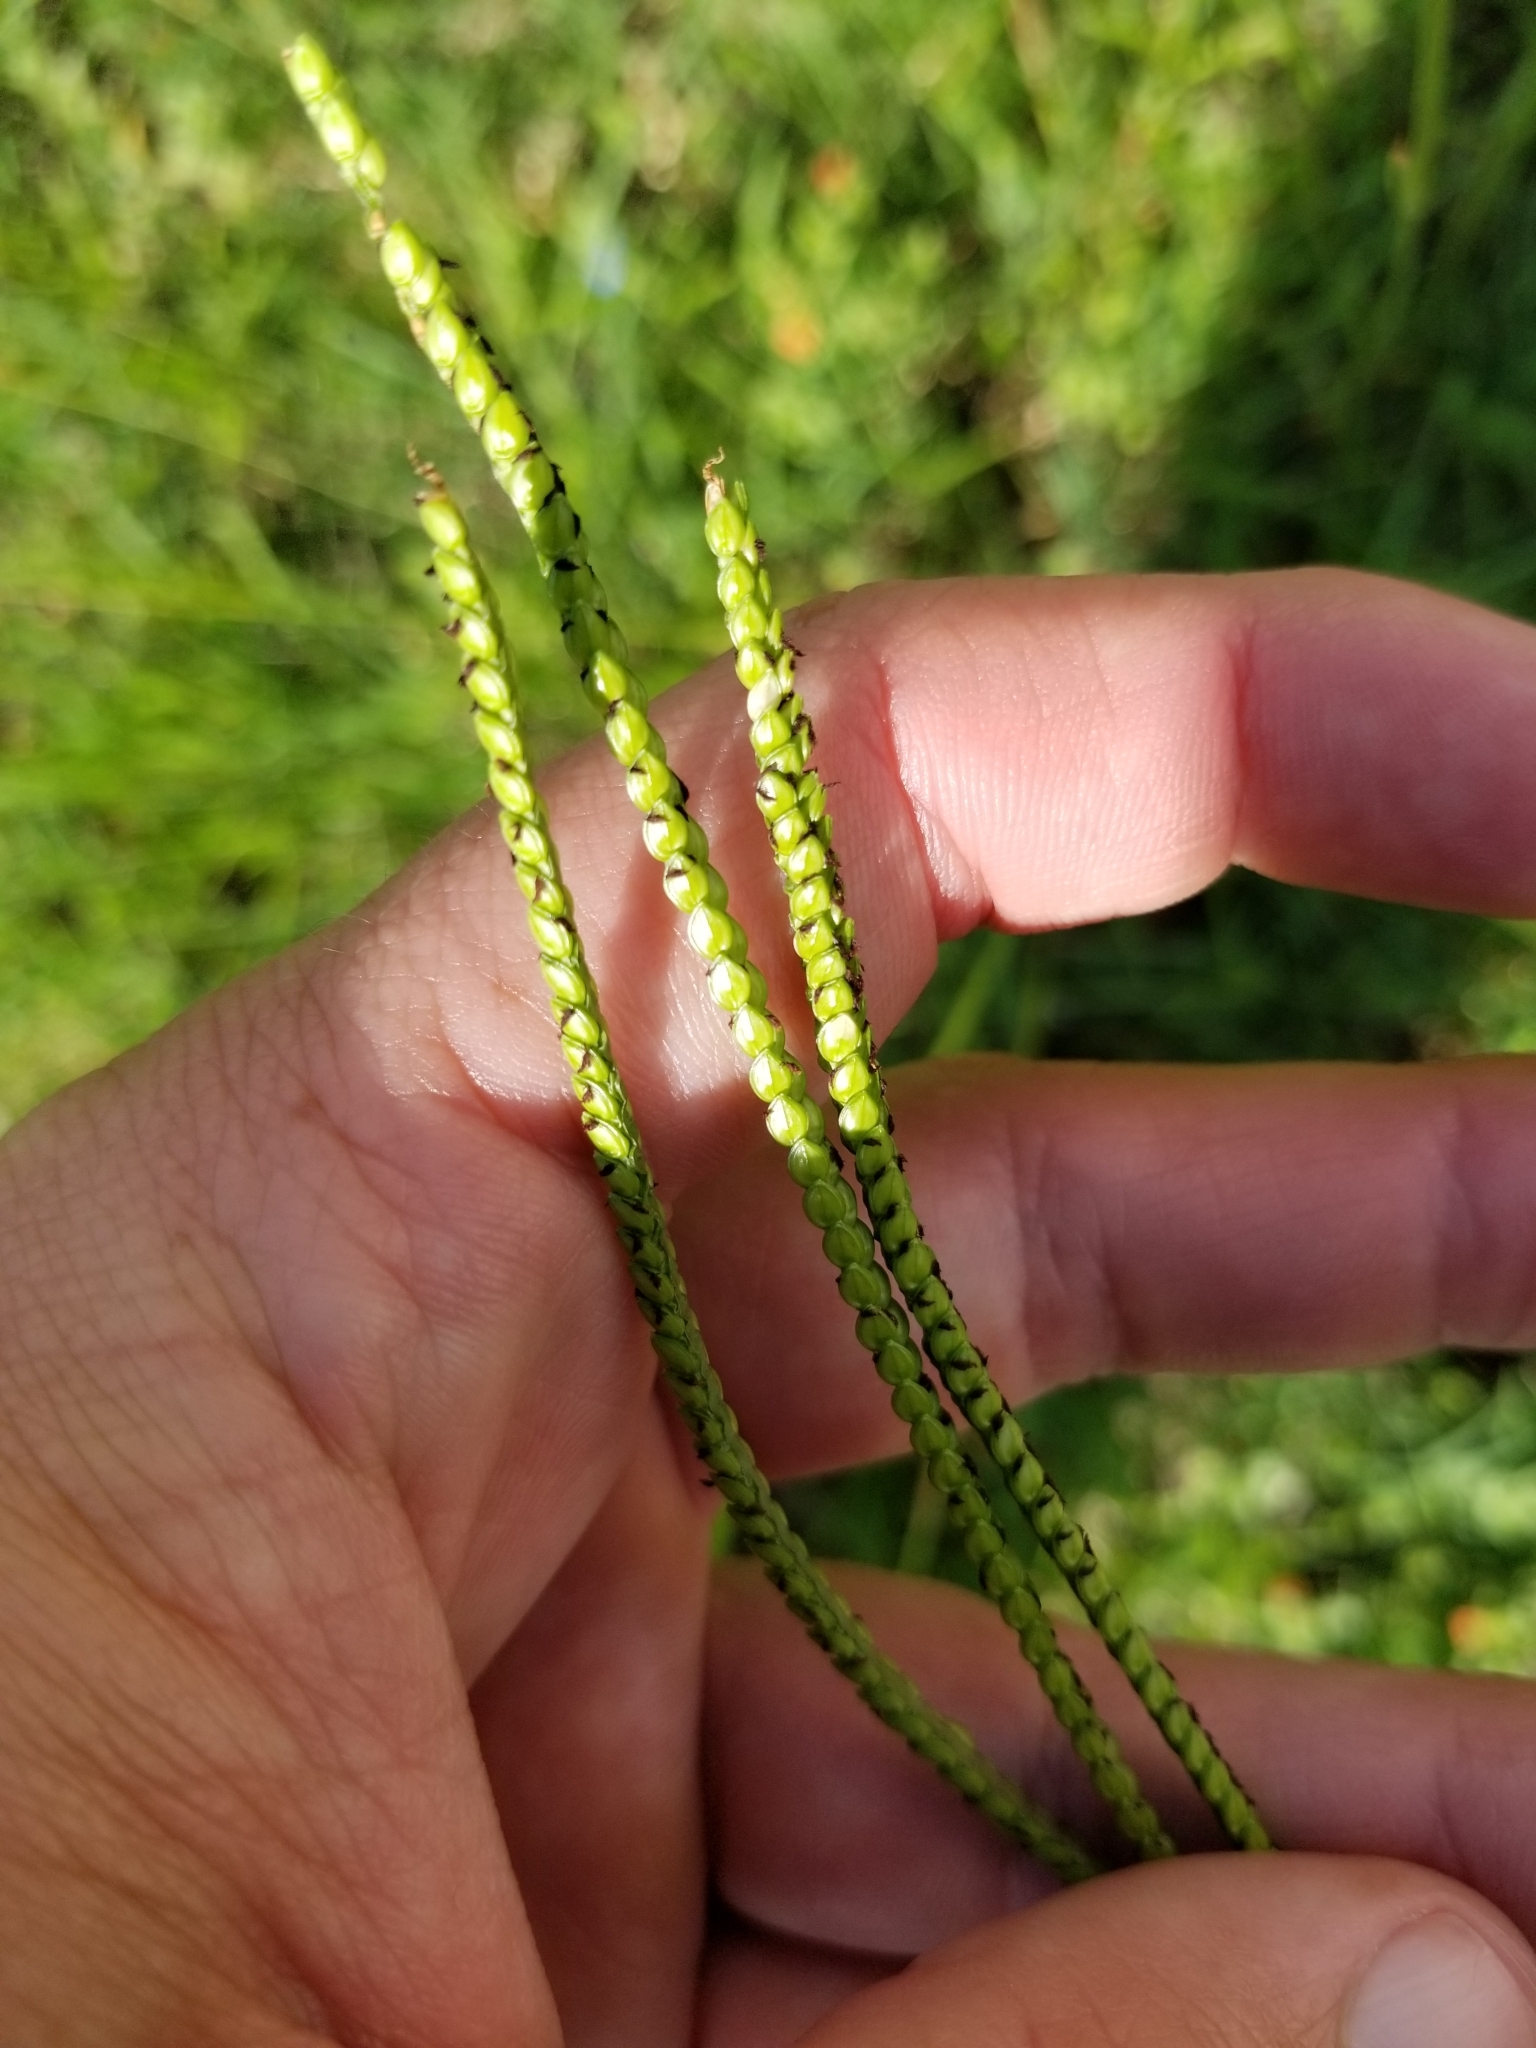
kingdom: Plantae
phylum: Tracheophyta
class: Liliopsida
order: Poales
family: Poaceae
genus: Paspalum
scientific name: Paspalum notatum
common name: Bahiagrass
